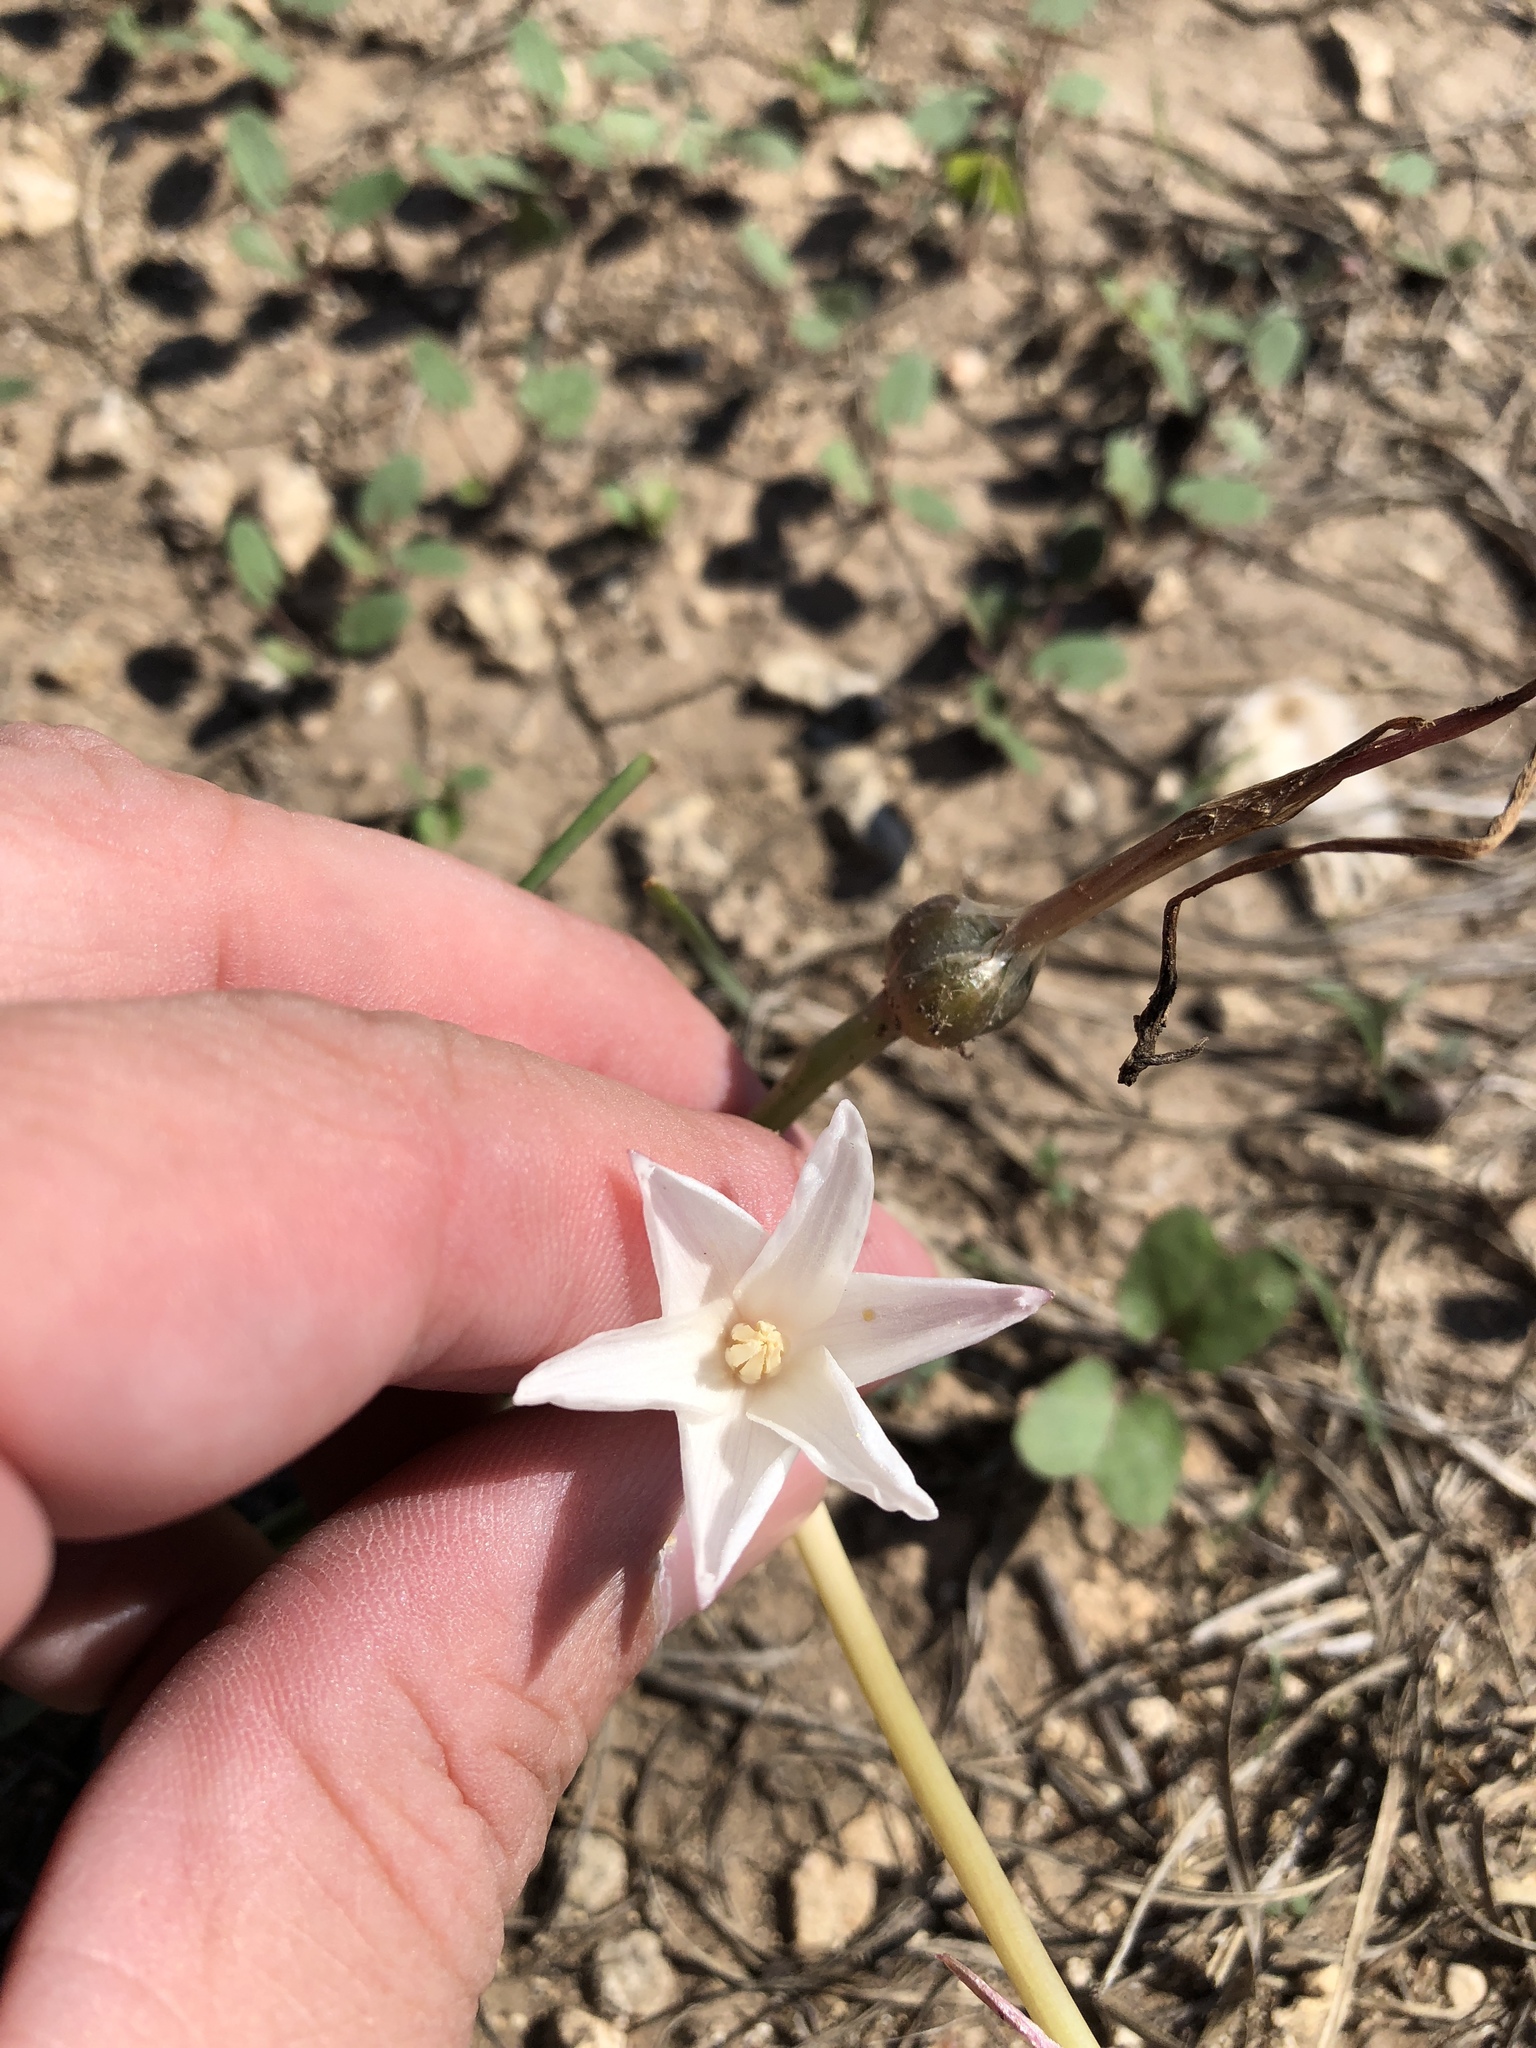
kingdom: Plantae
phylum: Tracheophyta
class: Liliopsida
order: Asparagales
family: Amaryllidaceae
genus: Zephyranthes
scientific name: Zephyranthes chlorosolen
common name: Evening rain-lily
